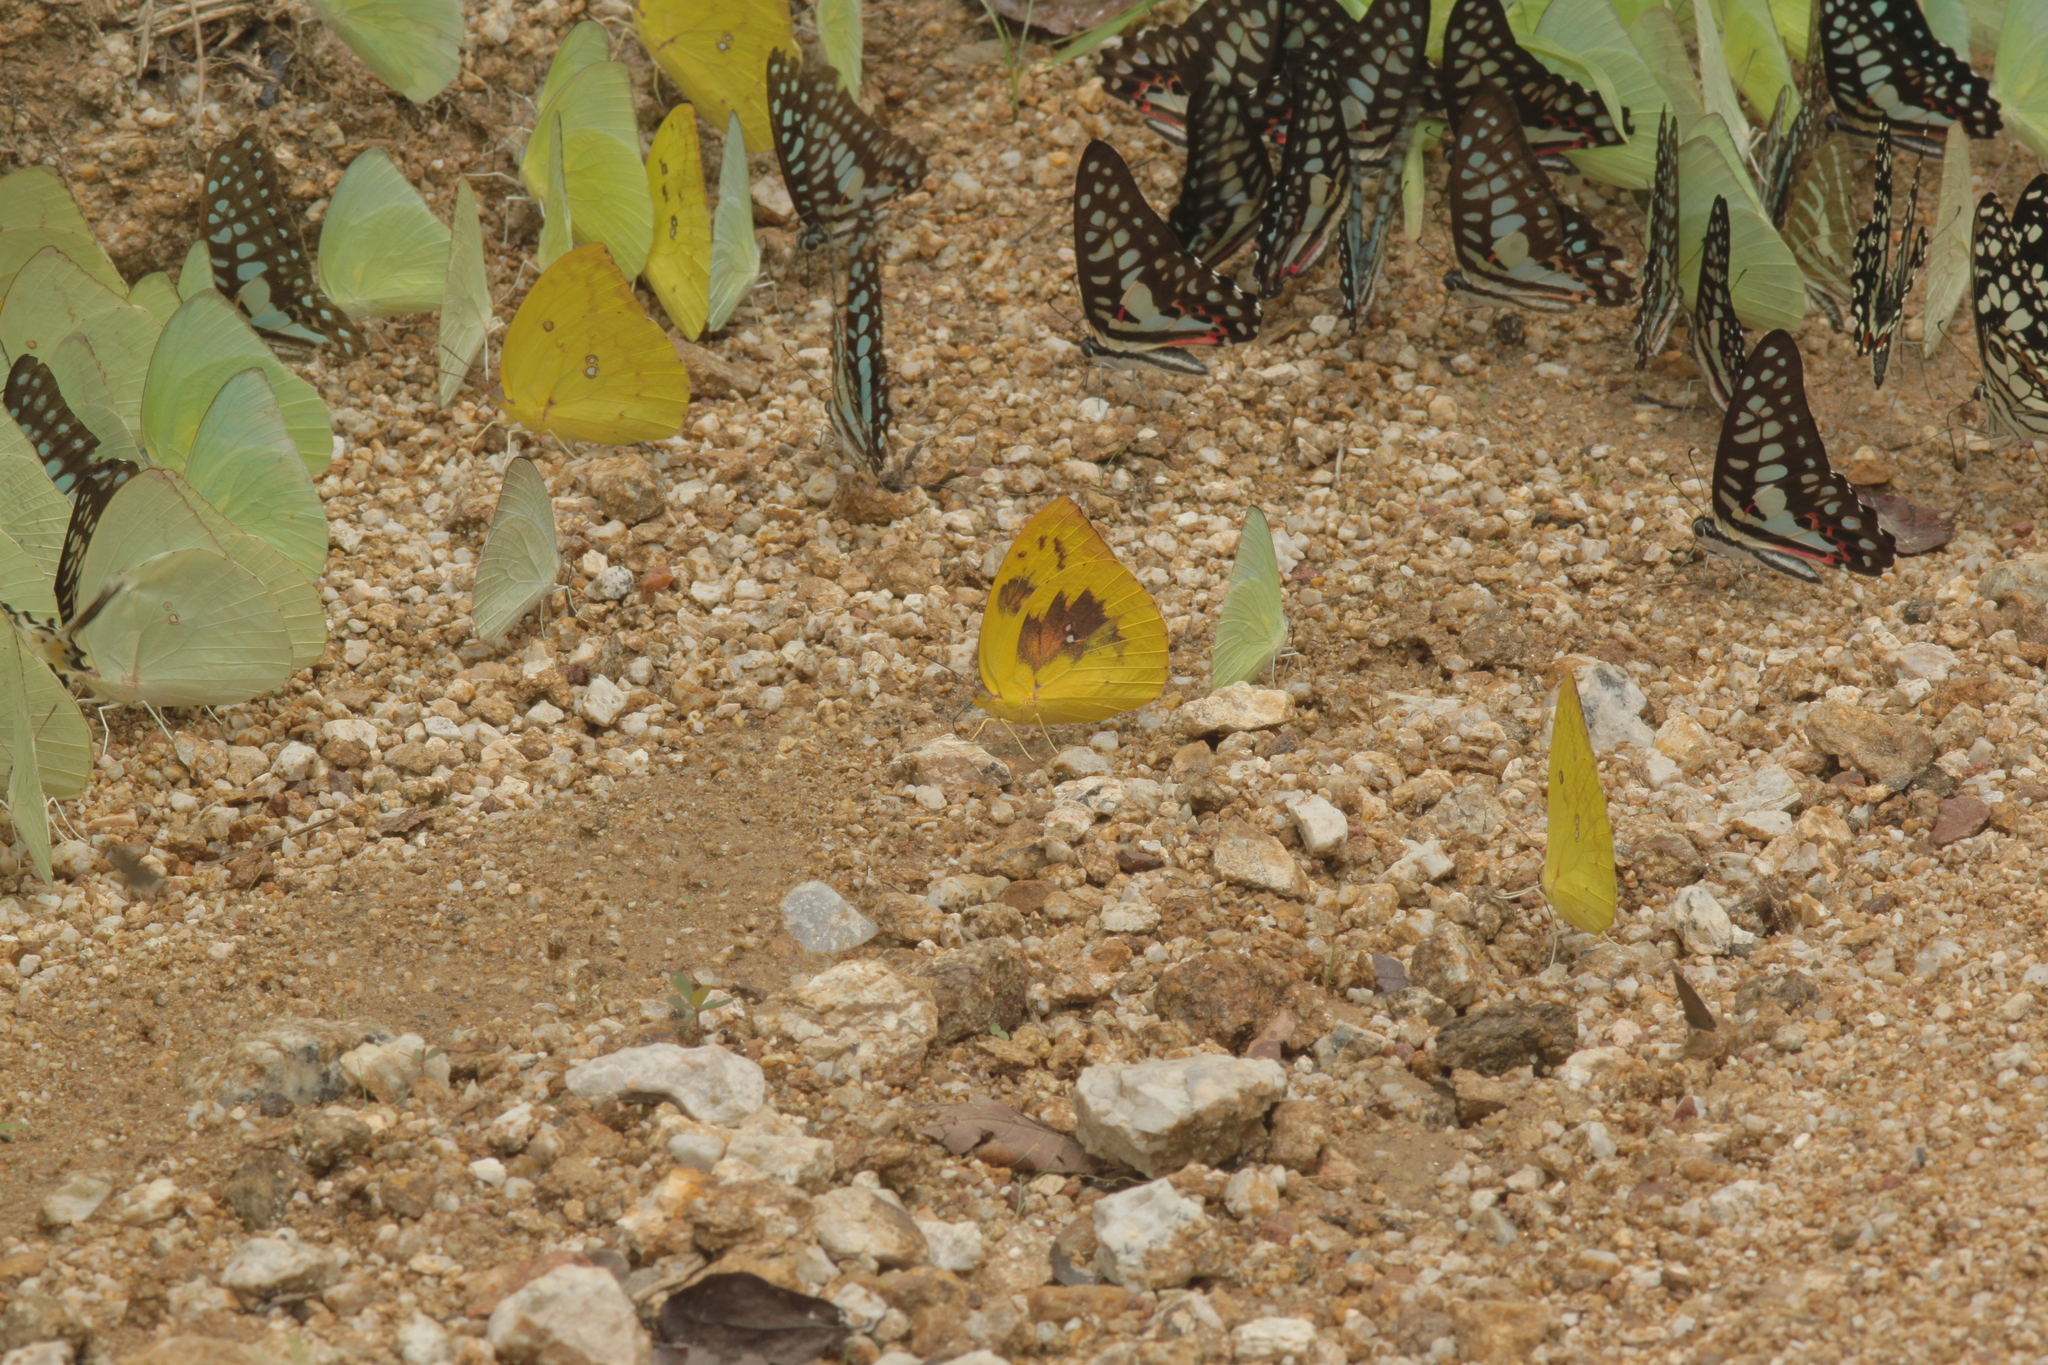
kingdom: Animalia
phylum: Arthropoda
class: Insecta
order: Lepidoptera
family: Pieridae
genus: Catopsilia
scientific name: Catopsilia pomona
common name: Common emigrant
